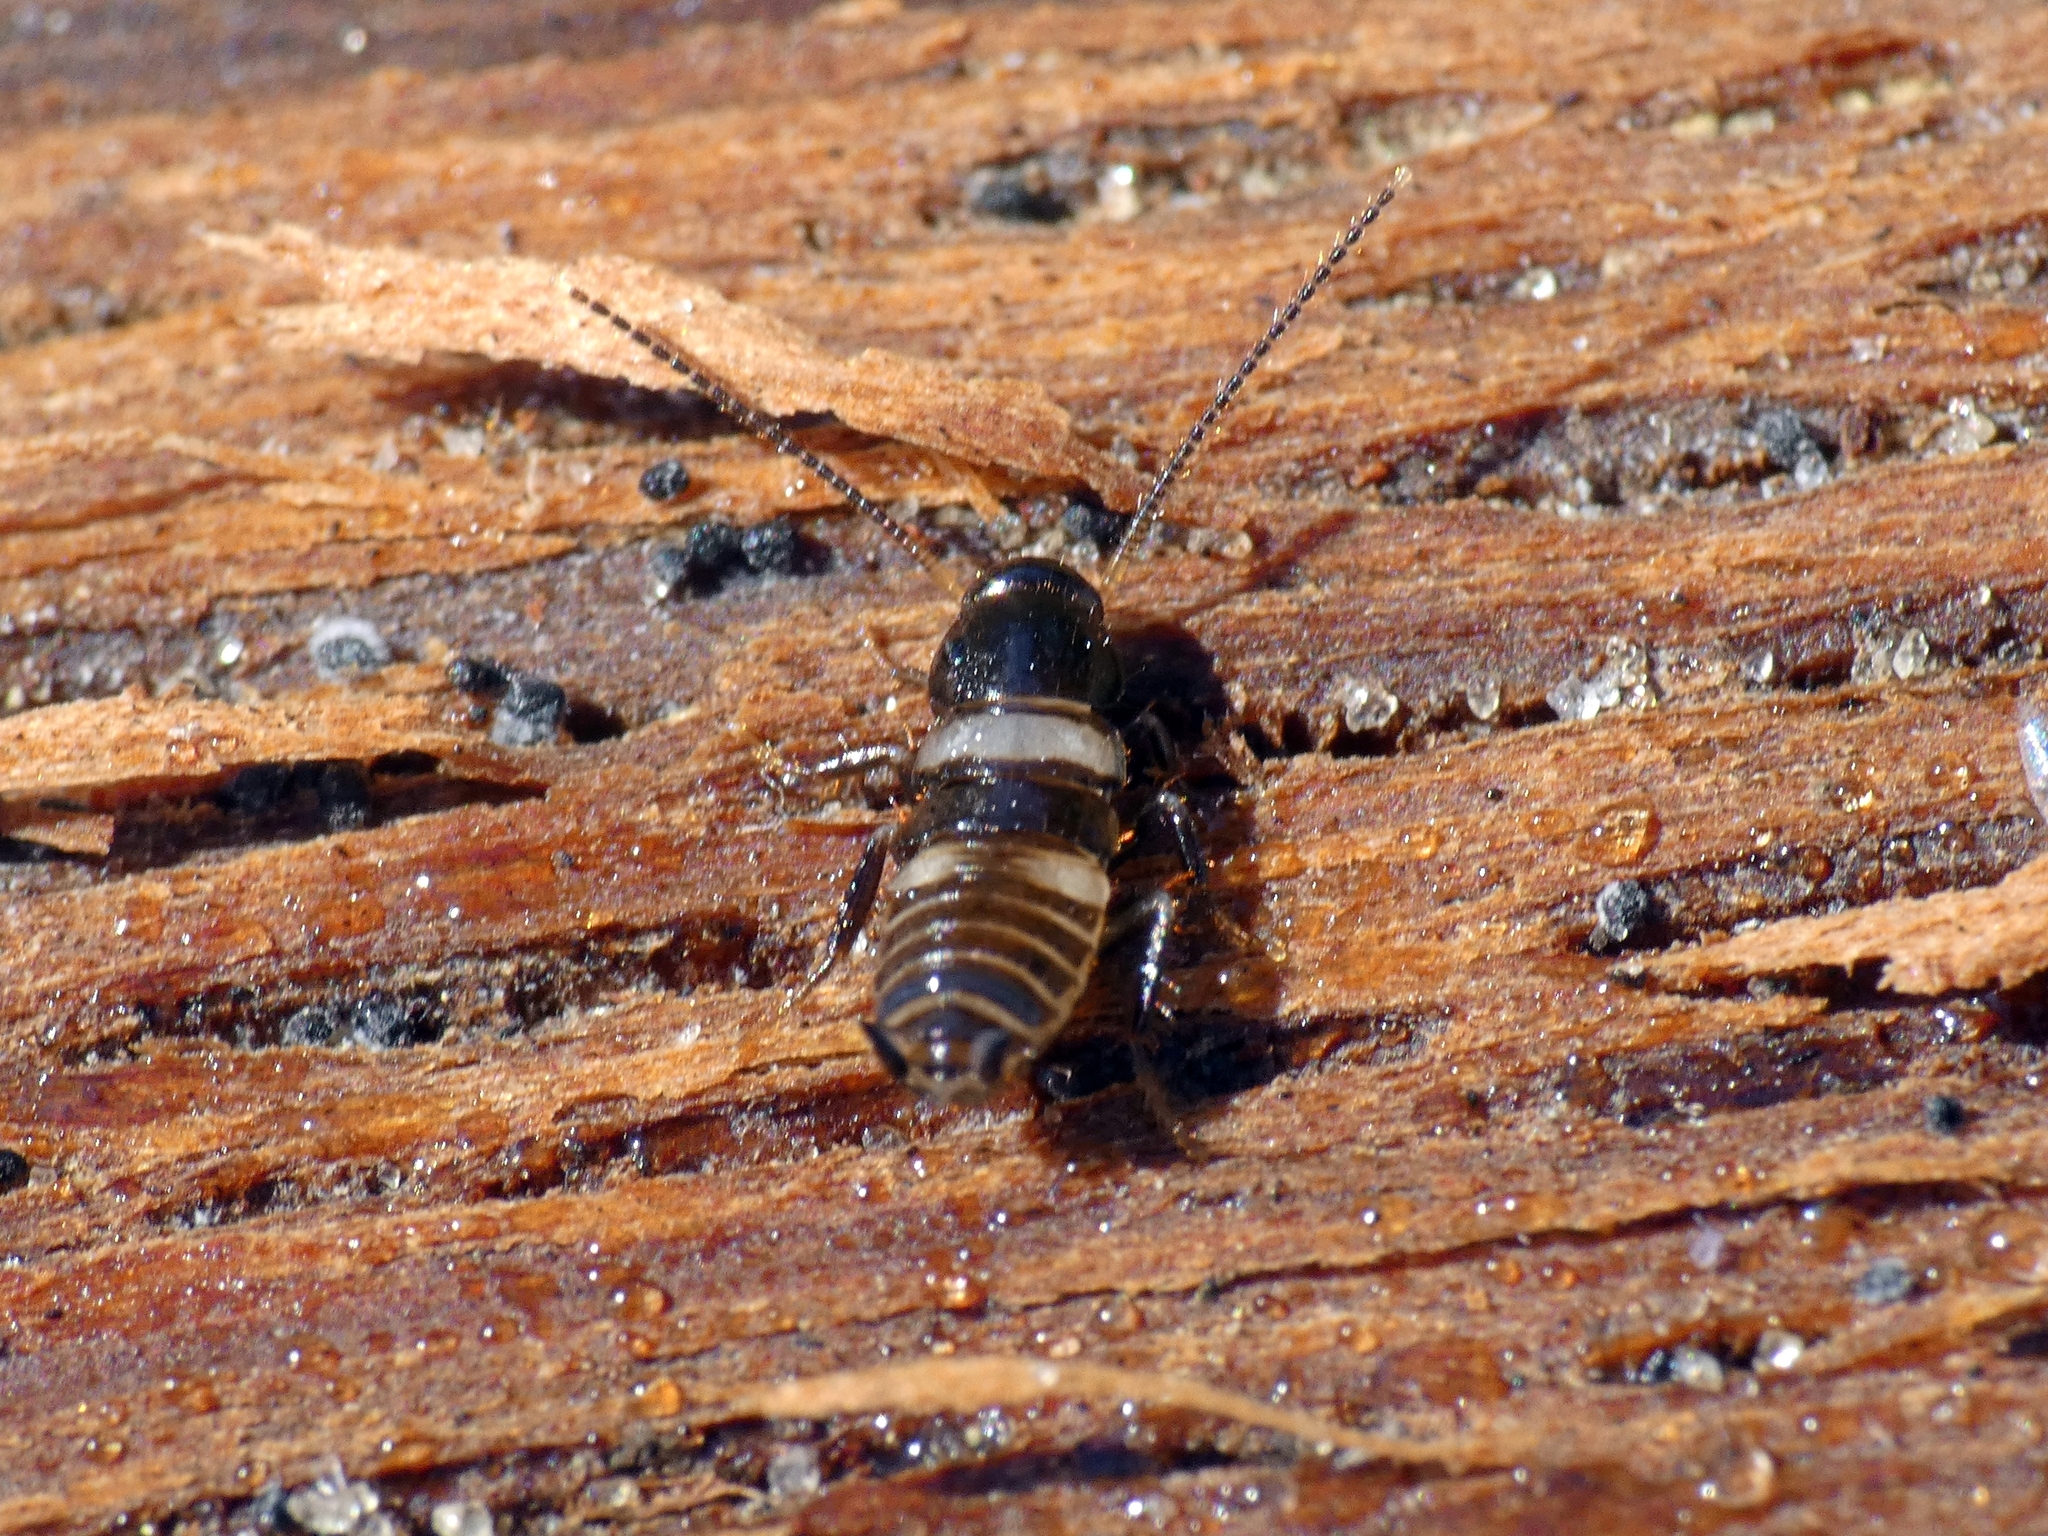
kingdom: Animalia
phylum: Arthropoda
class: Insecta
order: Blattodea
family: Blattidae
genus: Periplaneta
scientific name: Periplaneta fuliginosa
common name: Smokeybrown cockroad
